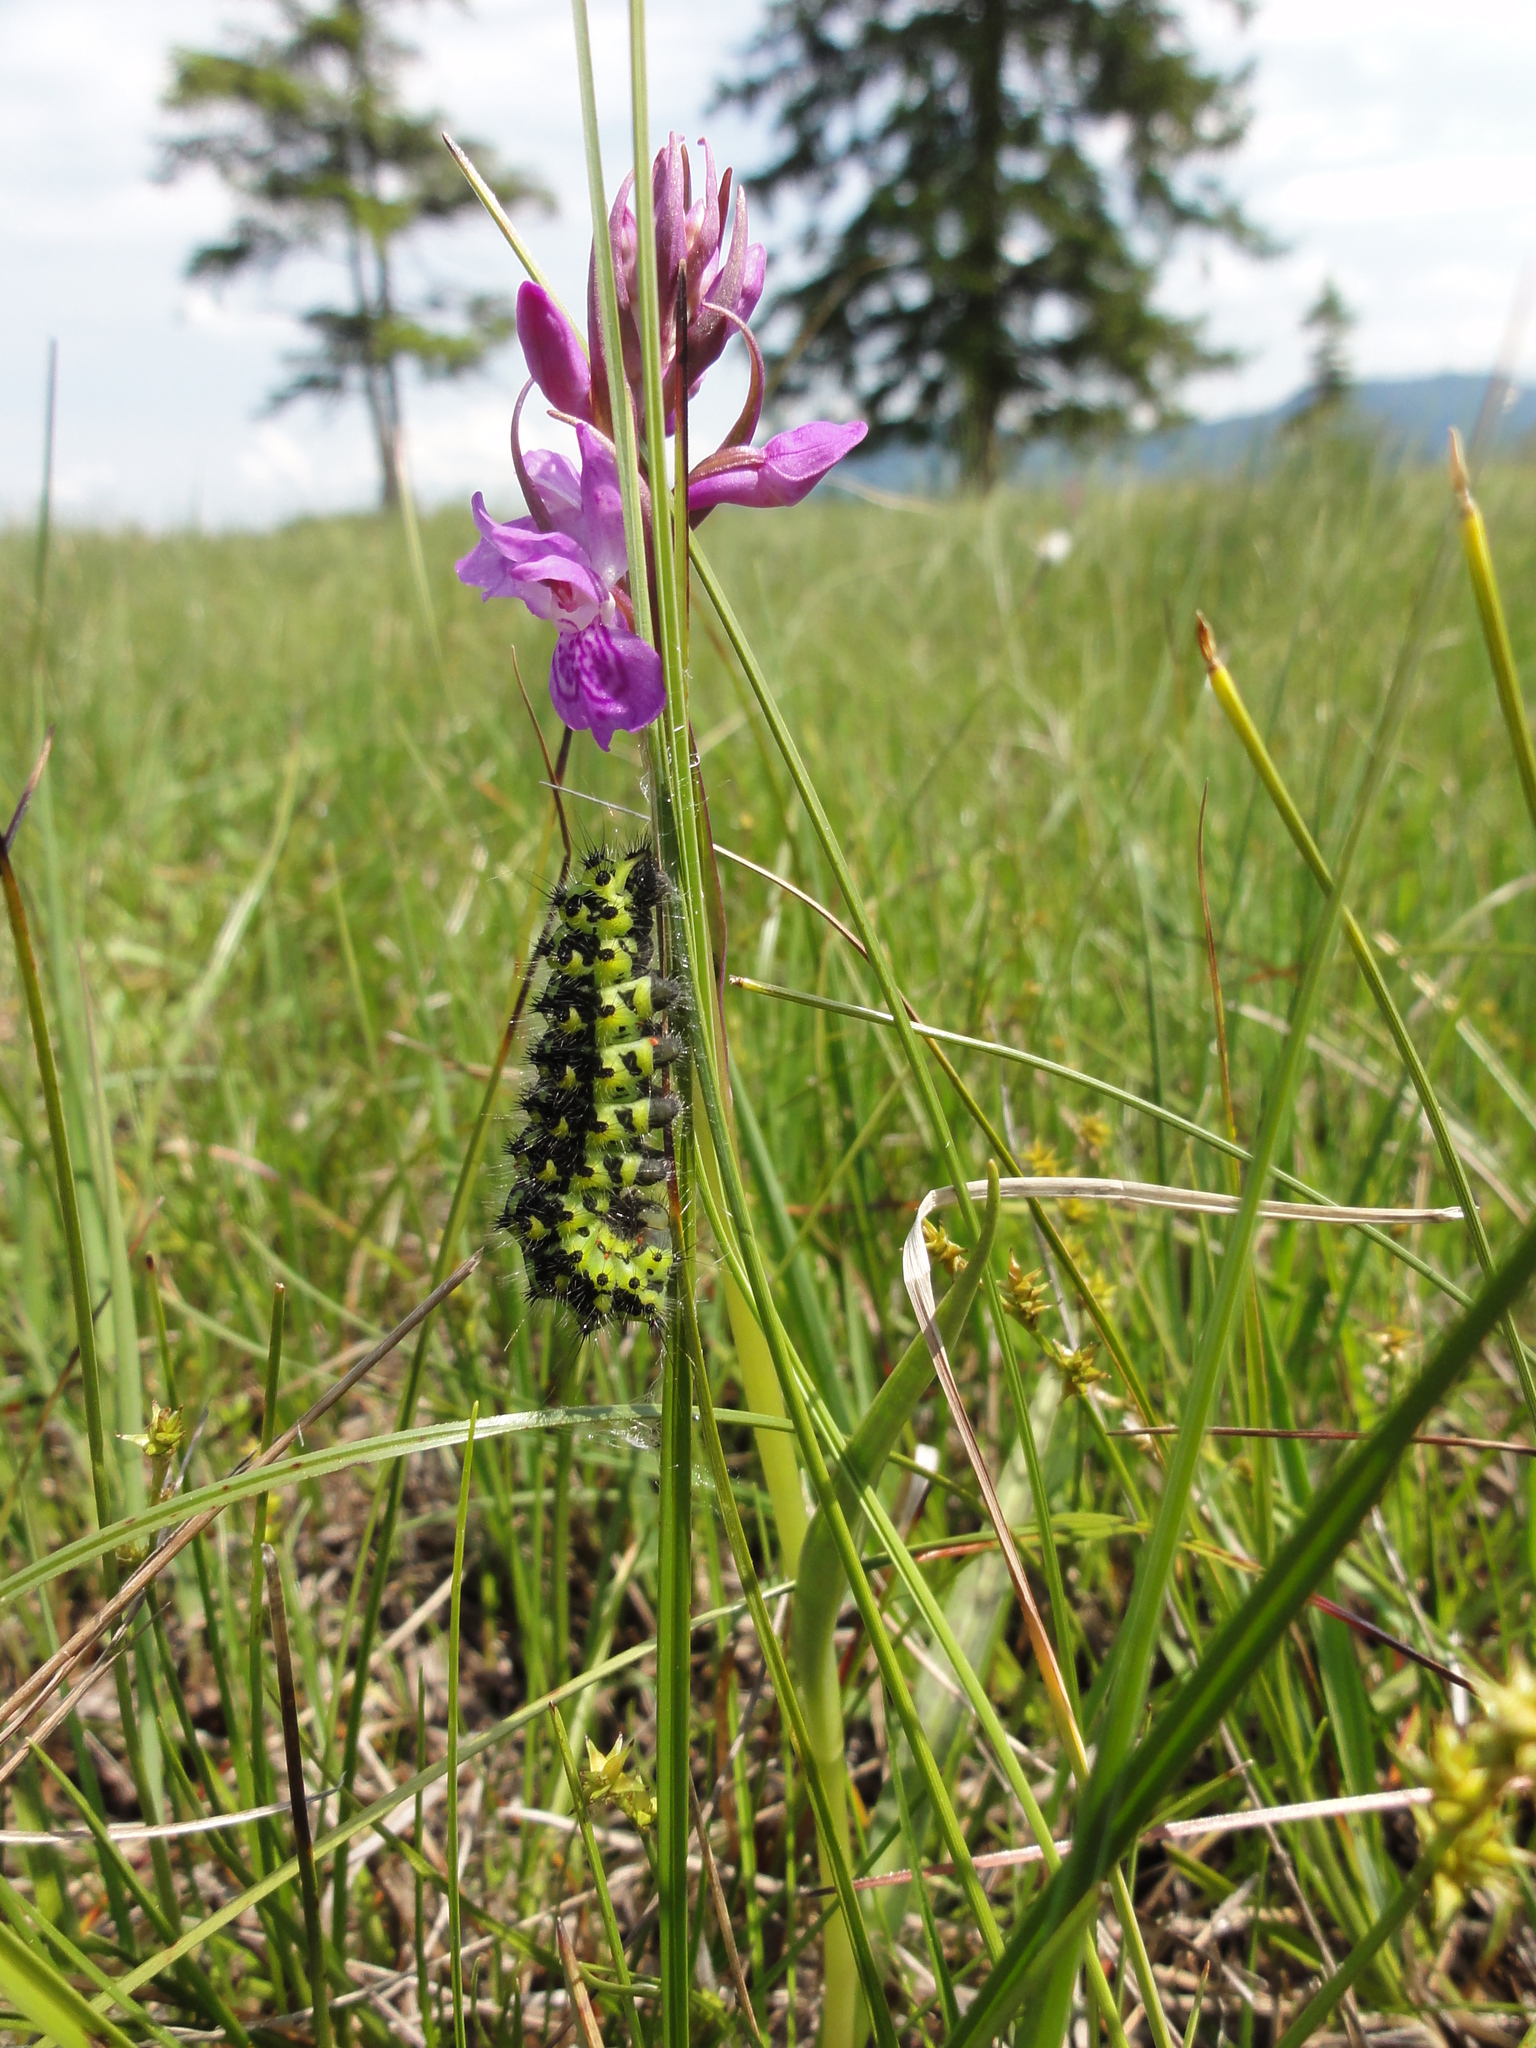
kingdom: Animalia
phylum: Arthropoda
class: Insecta
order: Lepidoptera
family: Saturniidae
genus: Saturnia
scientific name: Saturnia pavonia
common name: Emperor moth
